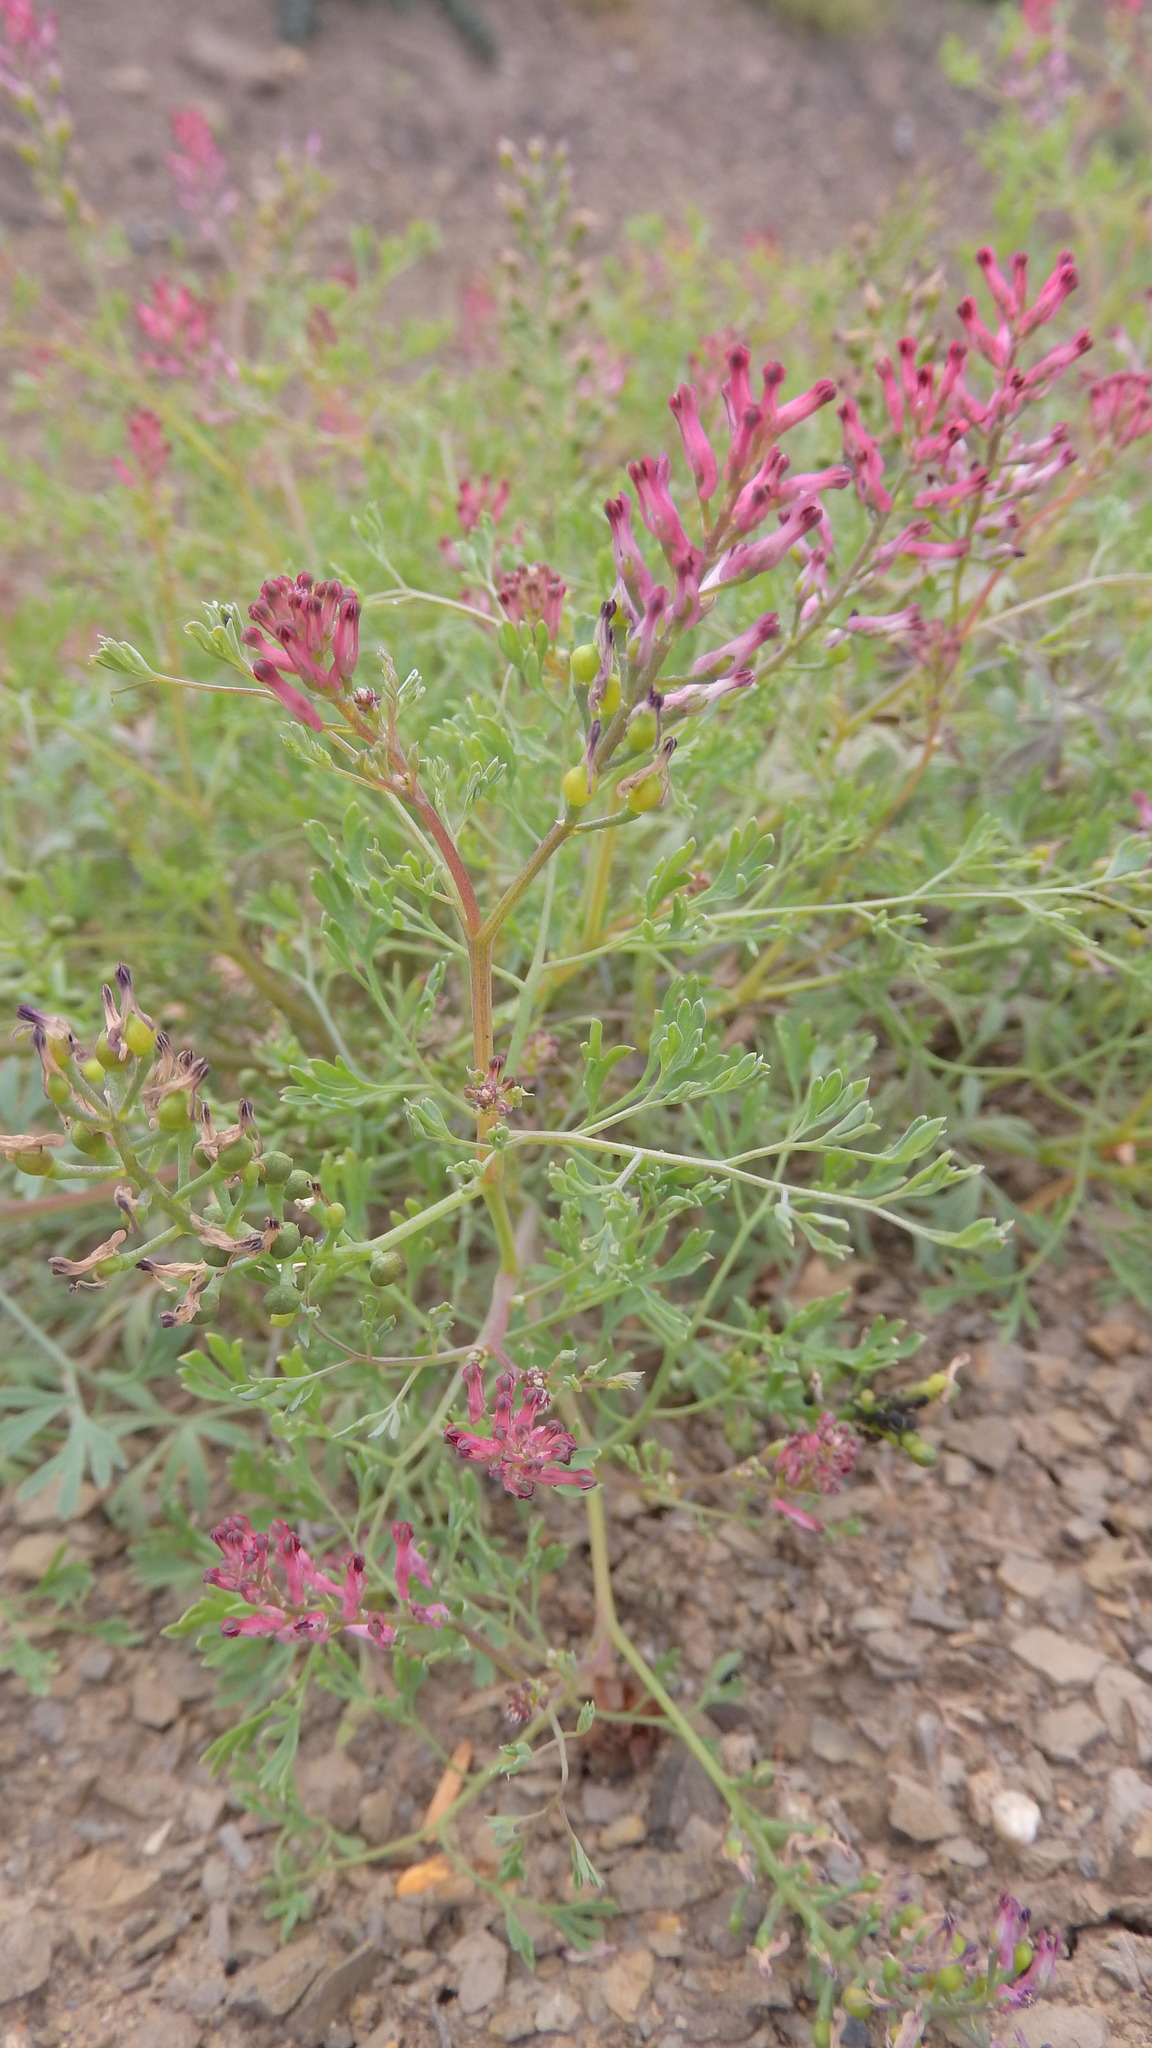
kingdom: Plantae
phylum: Tracheophyta
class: Magnoliopsida
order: Ranunculales
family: Papaveraceae
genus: Fumaria
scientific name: Fumaria officinalis
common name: Common fumitory
